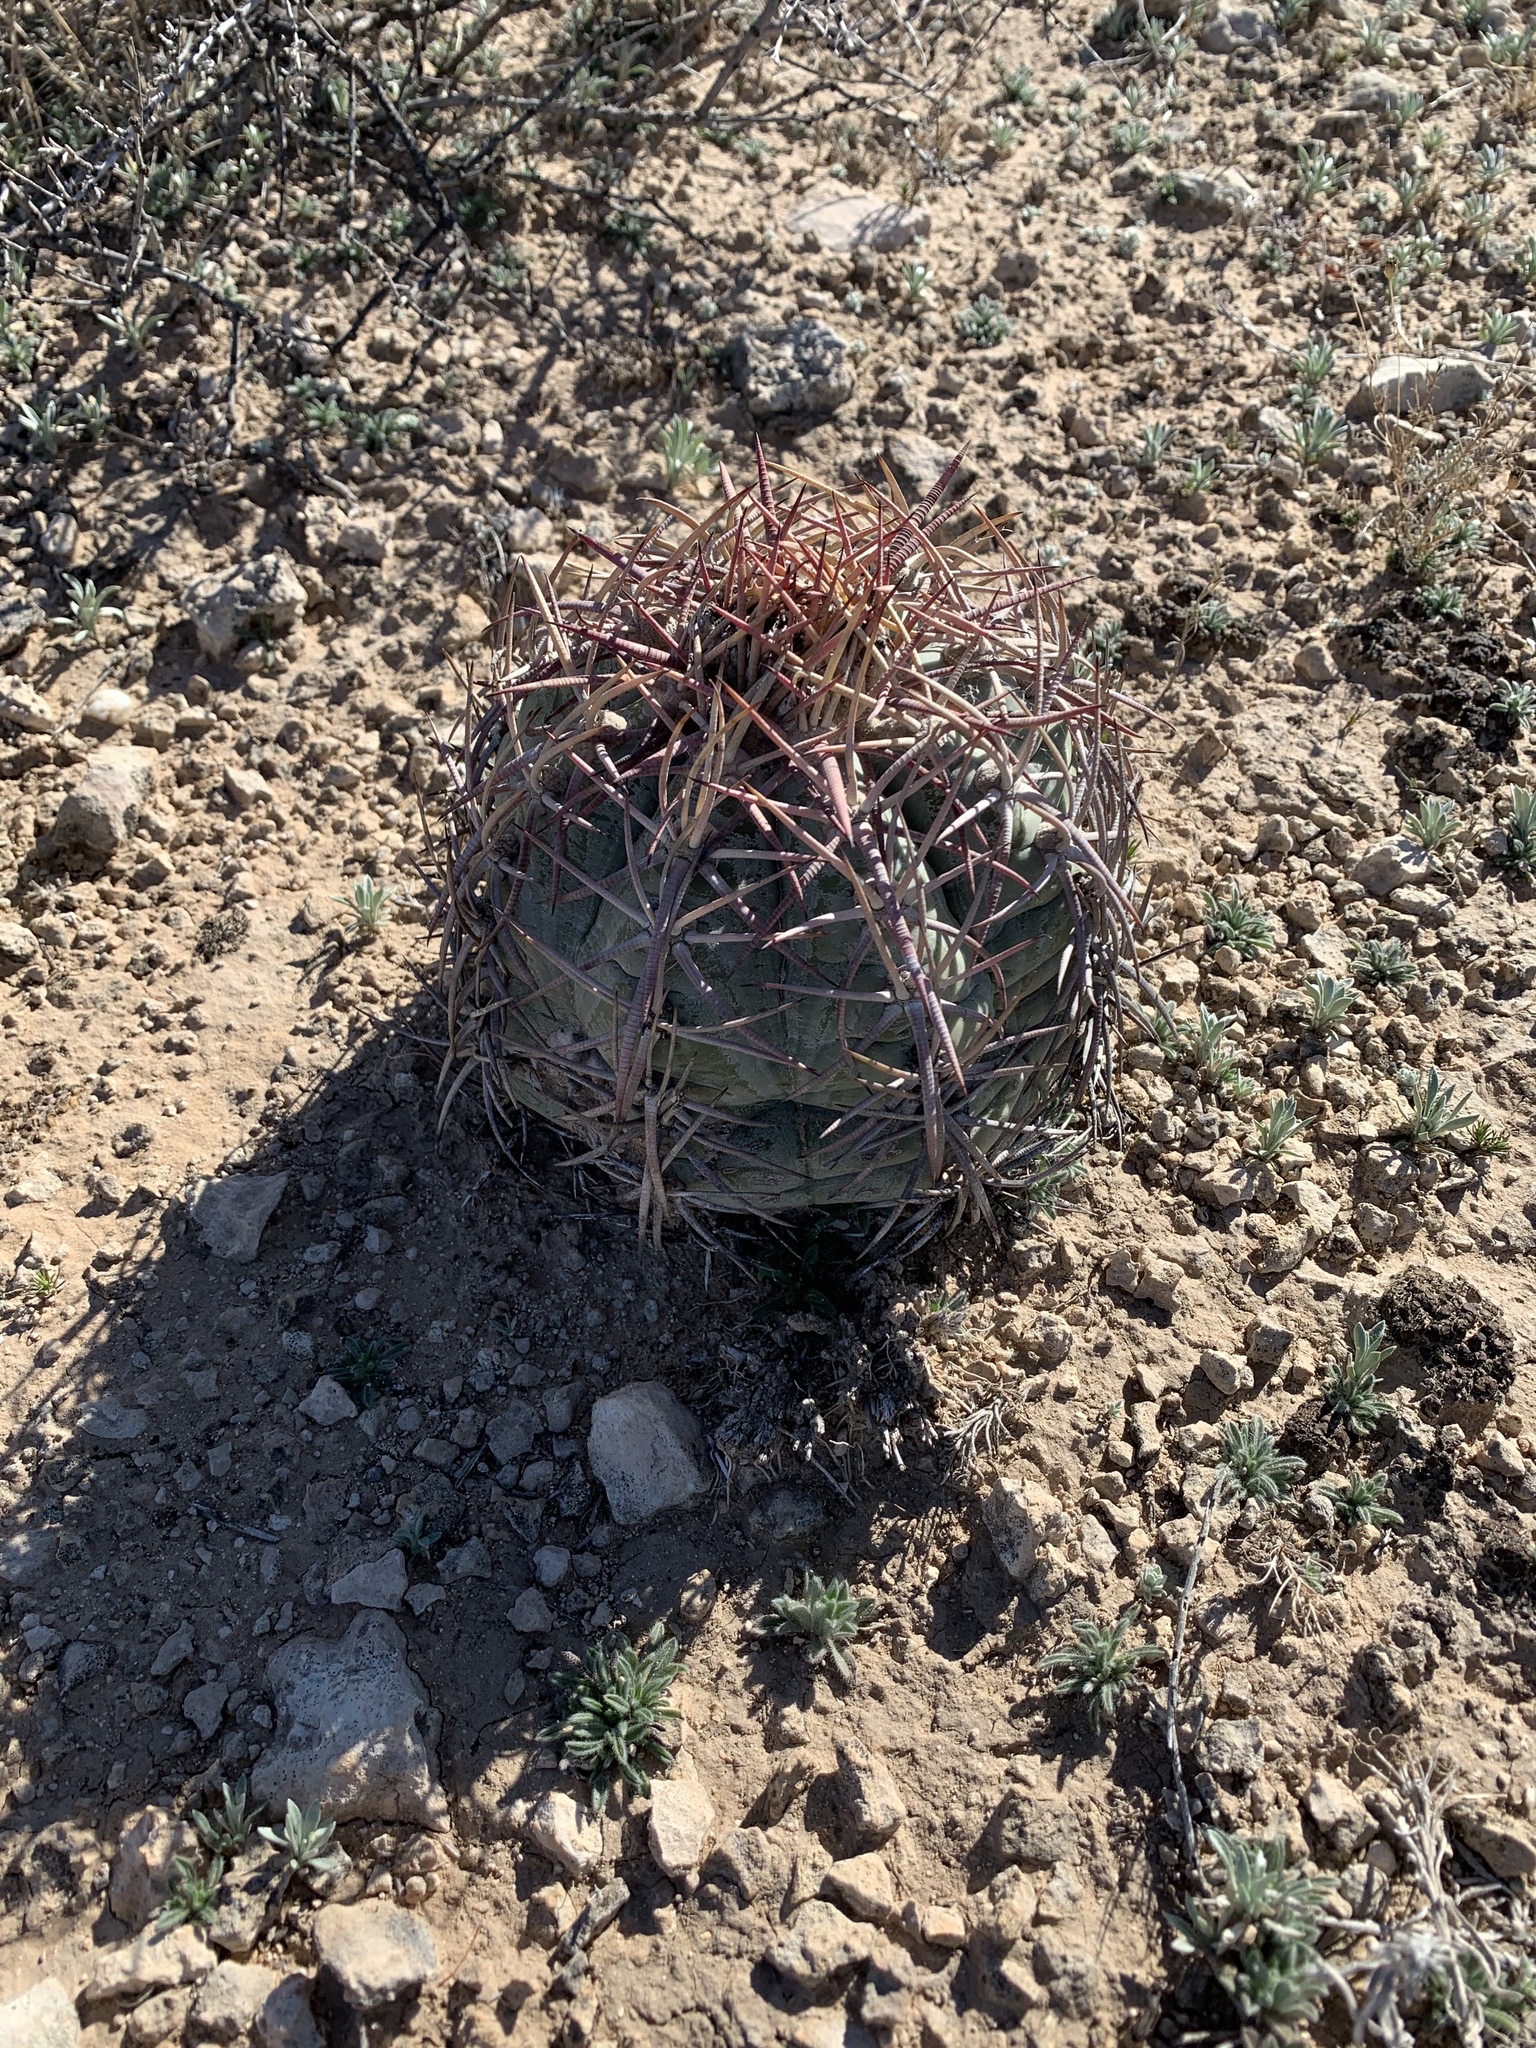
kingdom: Plantae
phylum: Tracheophyta
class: Magnoliopsida
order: Caryophyllales
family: Cactaceae
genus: Echinocactus
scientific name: Echinocactus horizonthalonius
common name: Devilshead
